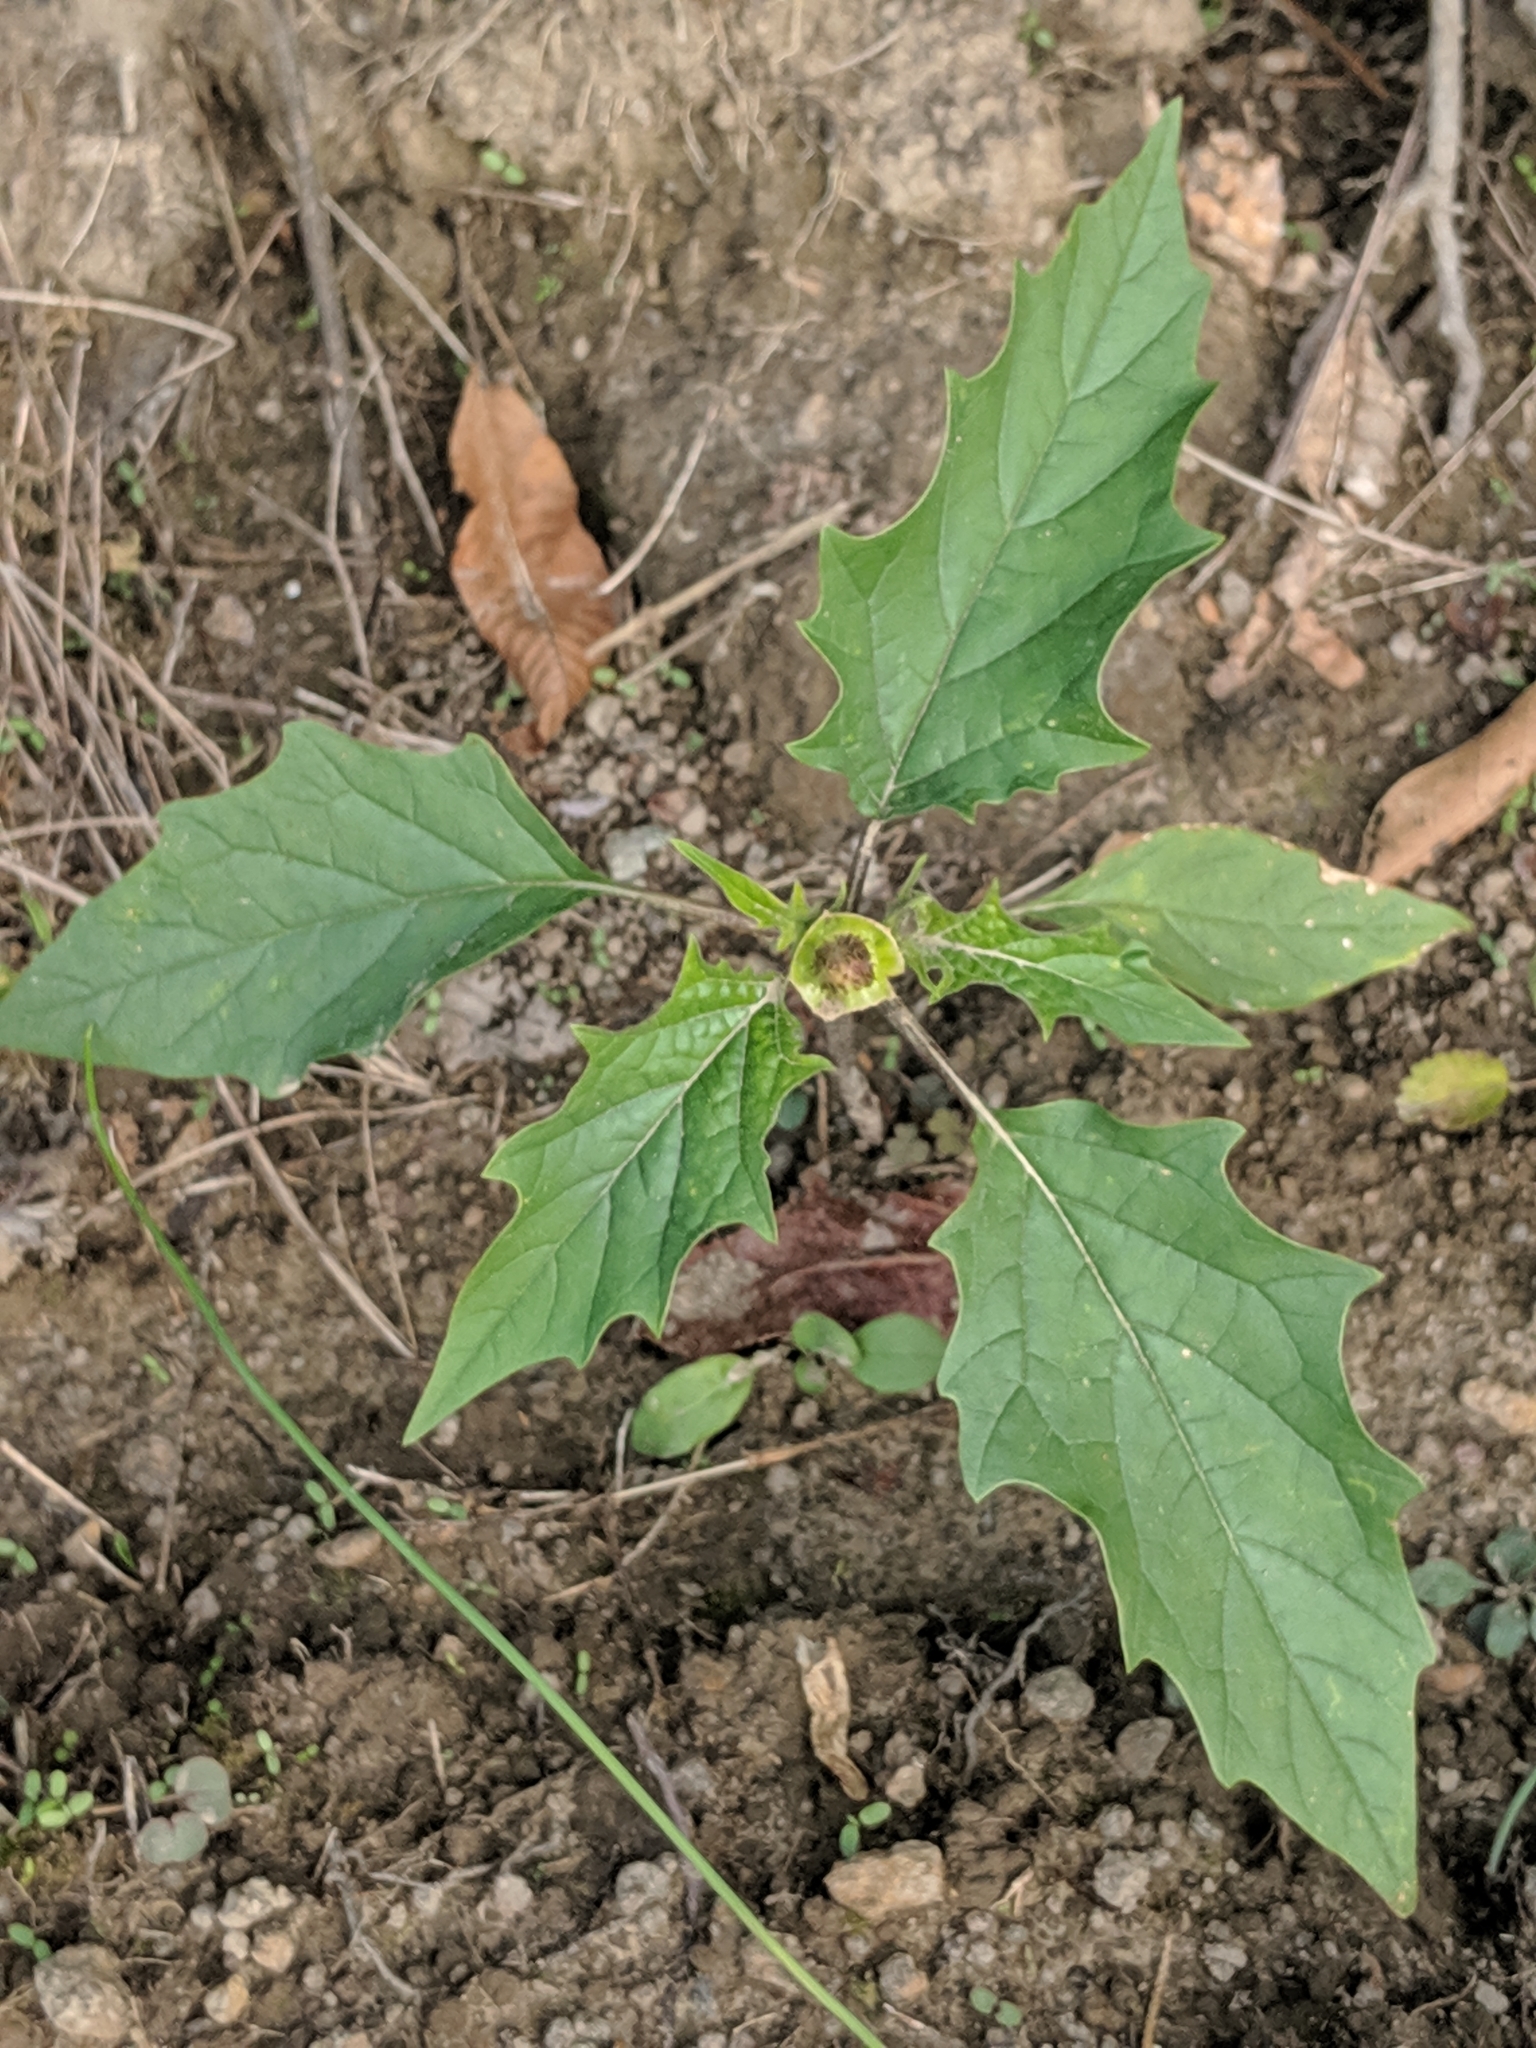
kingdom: Plantae
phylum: Tracheophyta
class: Magnoliopsida
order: Solanales
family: Solanaceae
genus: Datura
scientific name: Datura stramonium
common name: Thorn-apple
